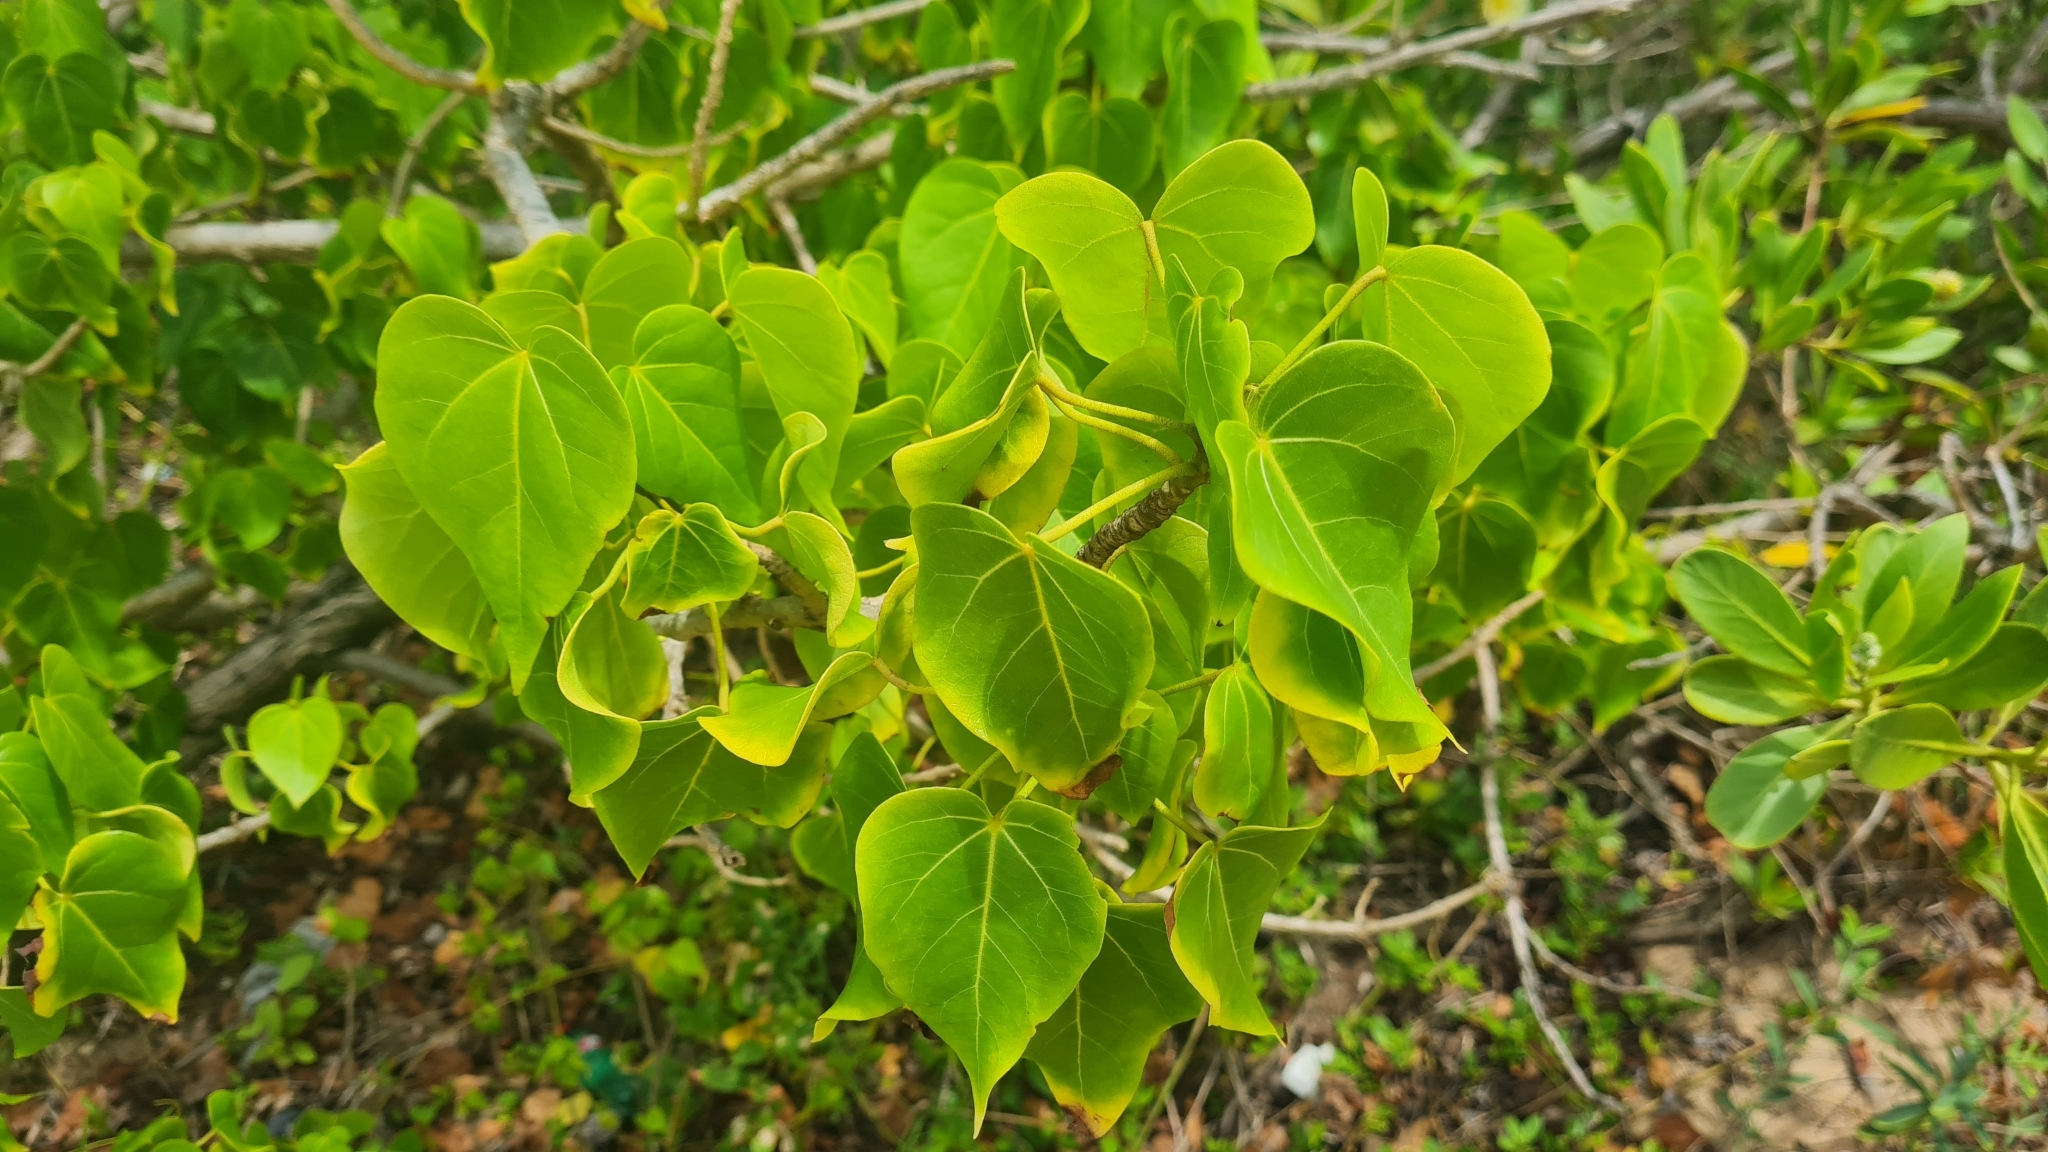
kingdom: Plantae
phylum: Tracheophyta
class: Magnoliopsida
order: Malvales
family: Malvaceae
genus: Thespesia
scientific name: Thespesia populnea
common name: Seaside mahoe
